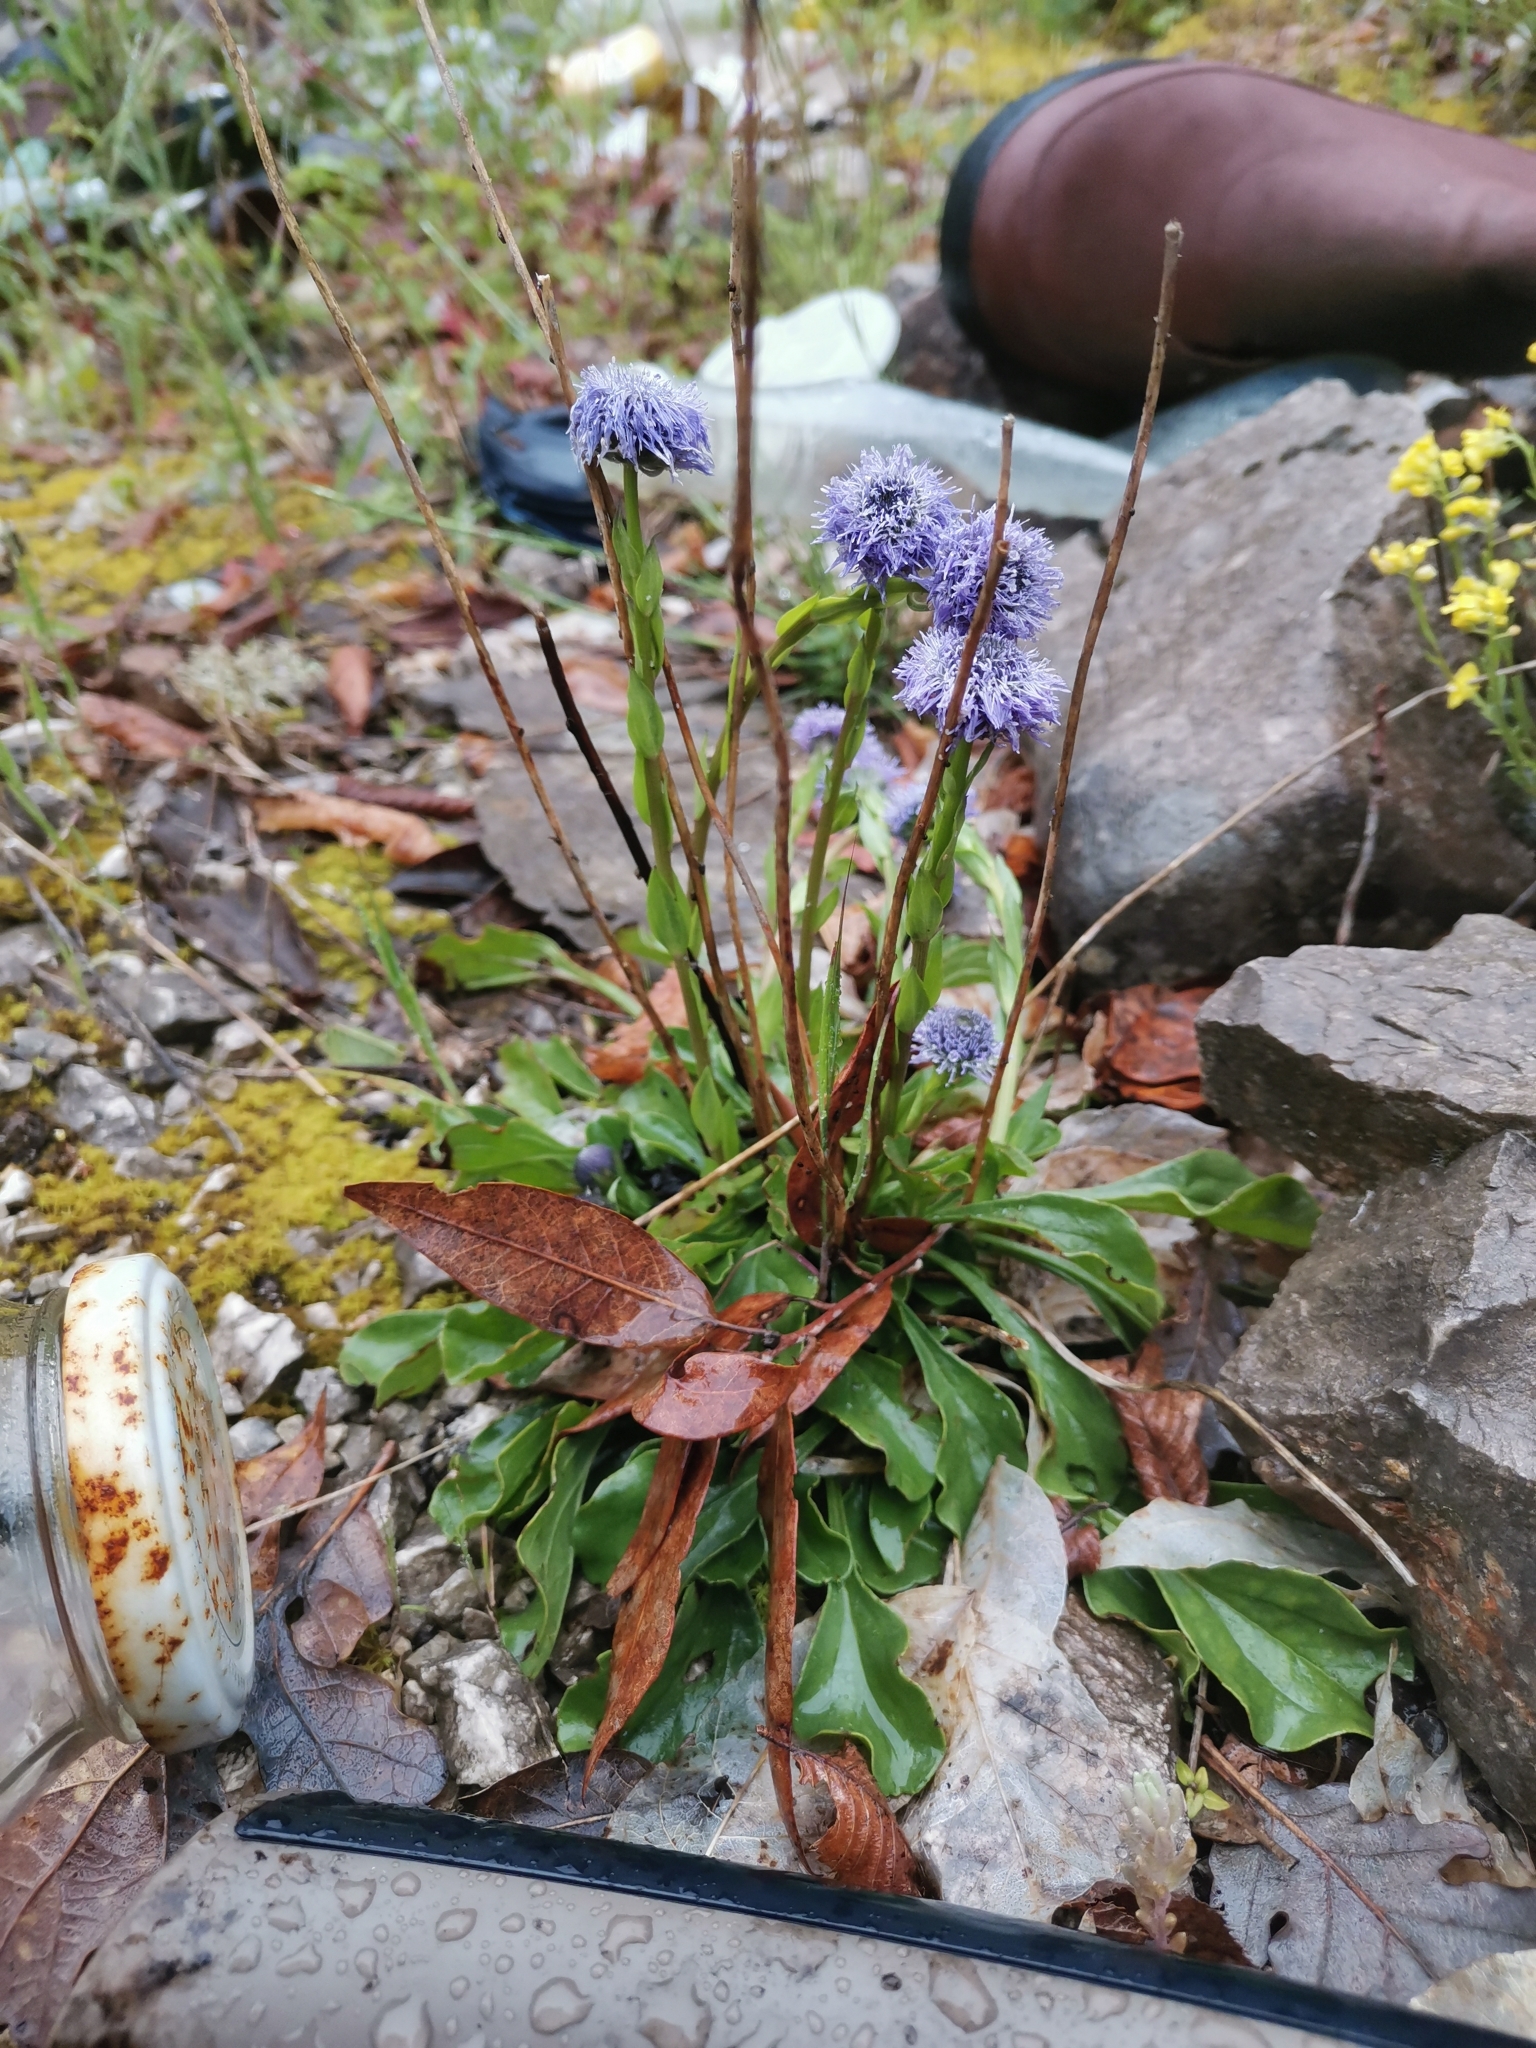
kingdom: Plantae
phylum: Tracheophyta
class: Magnoliopsida
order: Lamiales
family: Plantaginaceae
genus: Globularia
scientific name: Globularia bisnagarica
